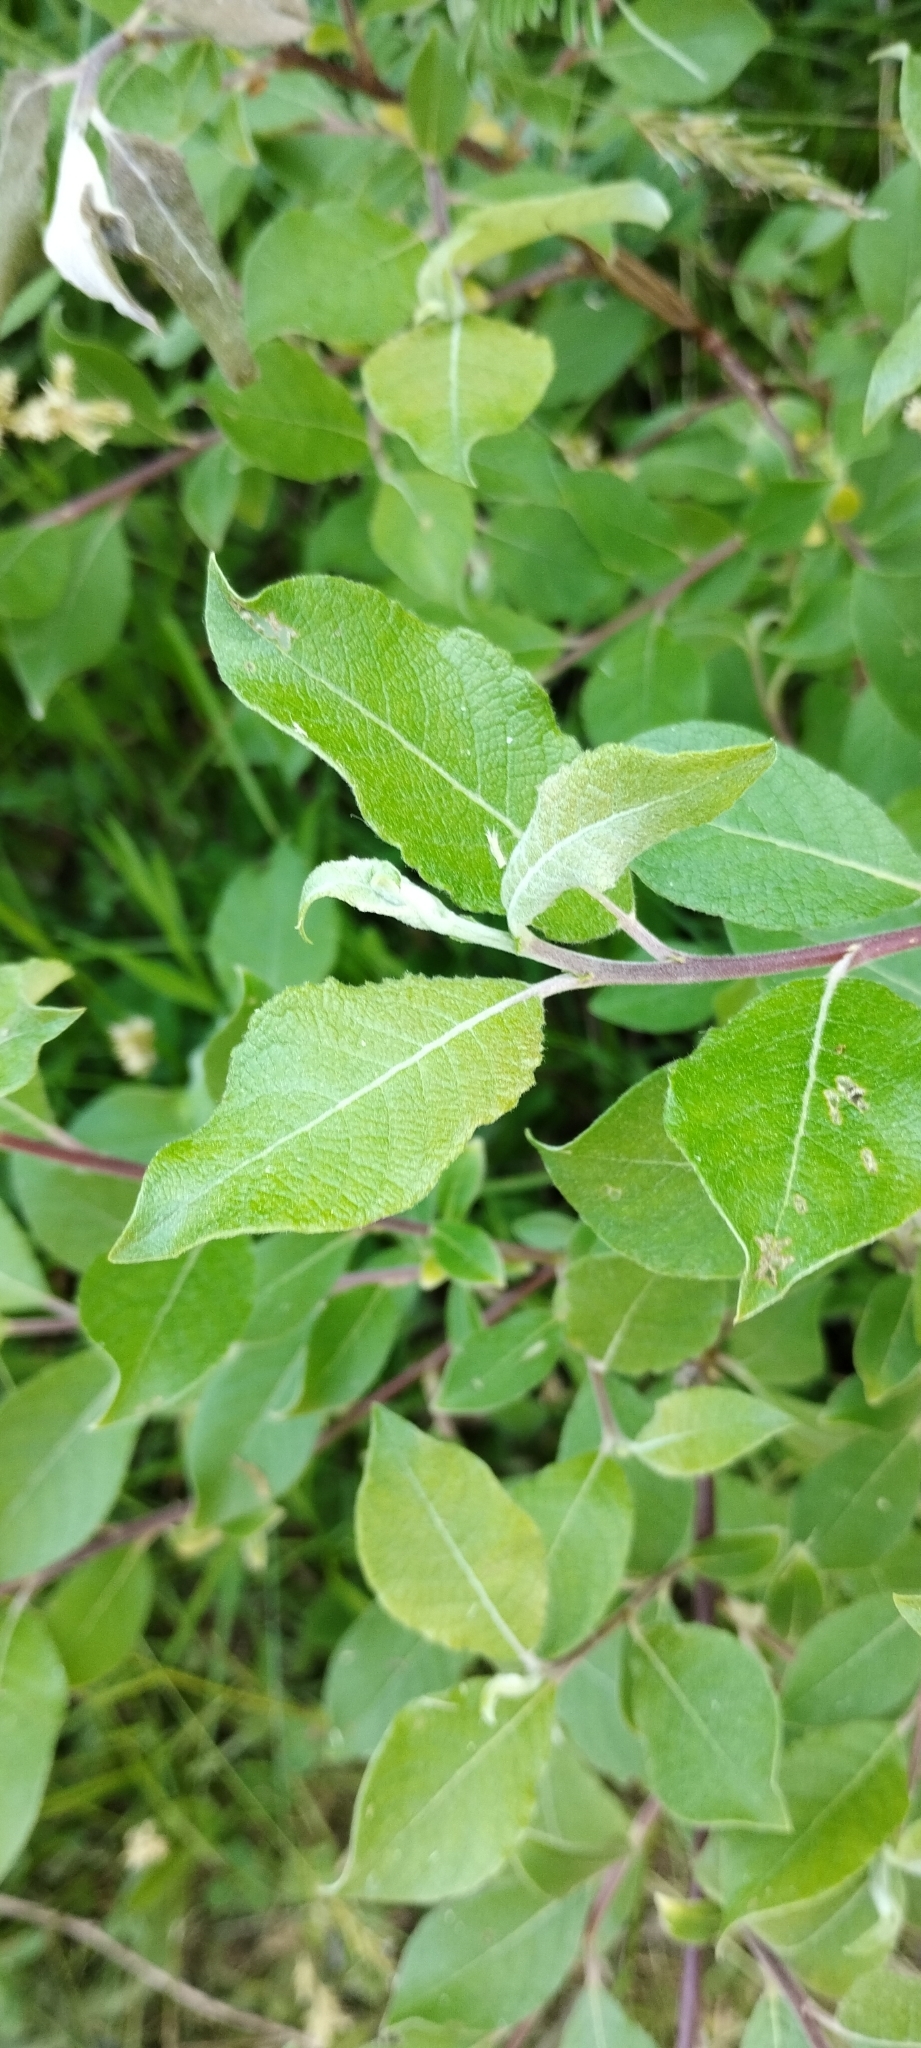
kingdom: Plantae
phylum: Tracheophyta
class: Magnoliopsida
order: Malpighiales
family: Salicaceae
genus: Salix
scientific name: Salix caprea
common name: Goat willow
